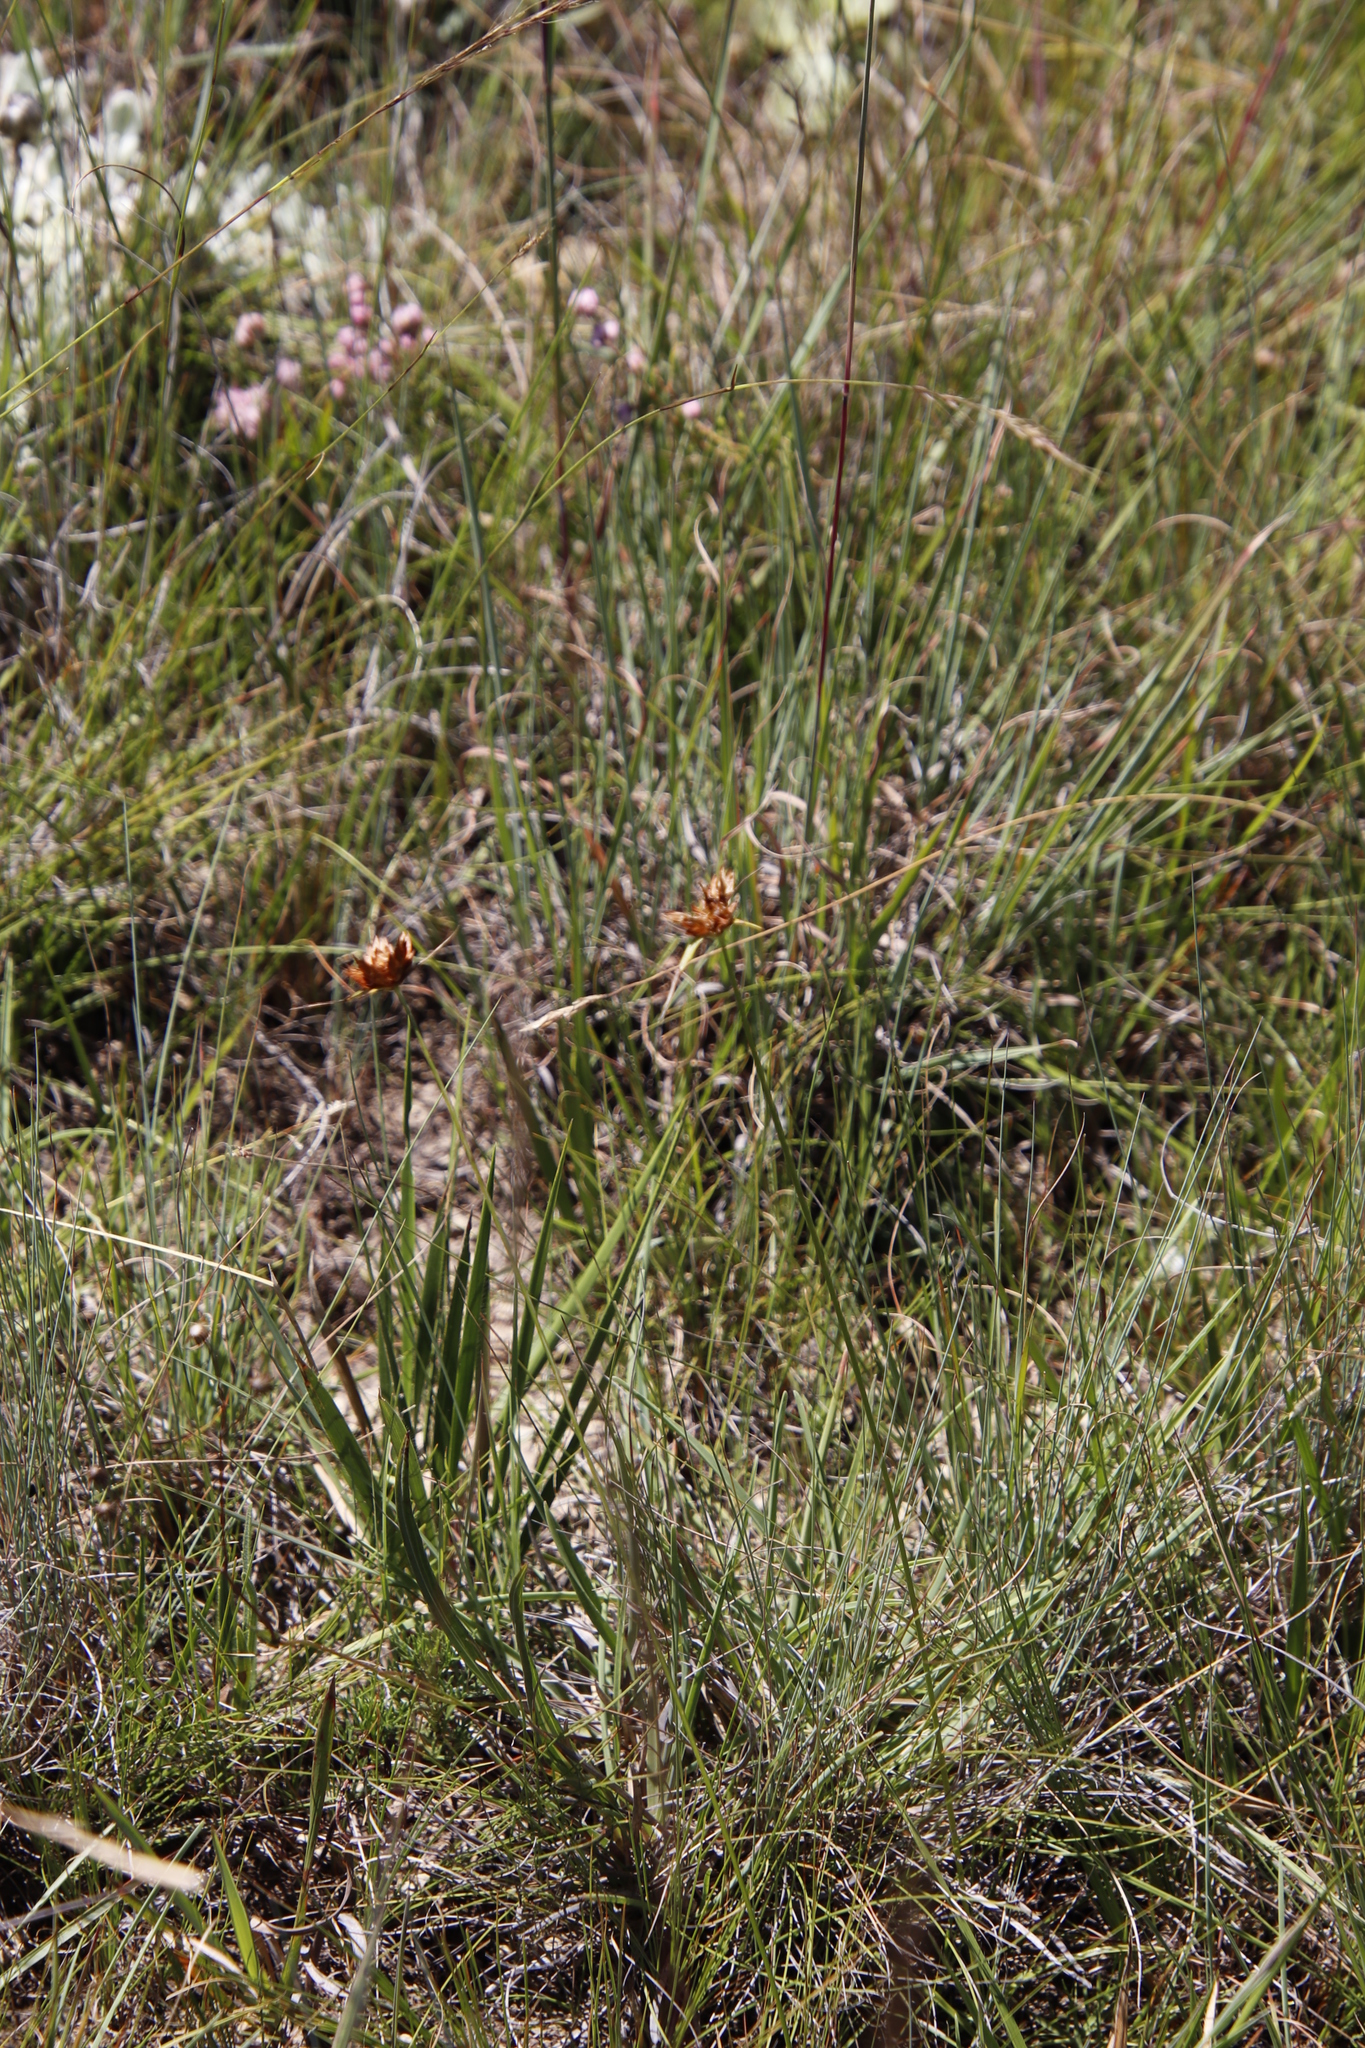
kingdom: Plantae
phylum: Tracheophyta
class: Liliopsida
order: Poales
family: Cyperaceae
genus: Cyperus
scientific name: Cyperus sphaerocephalus
